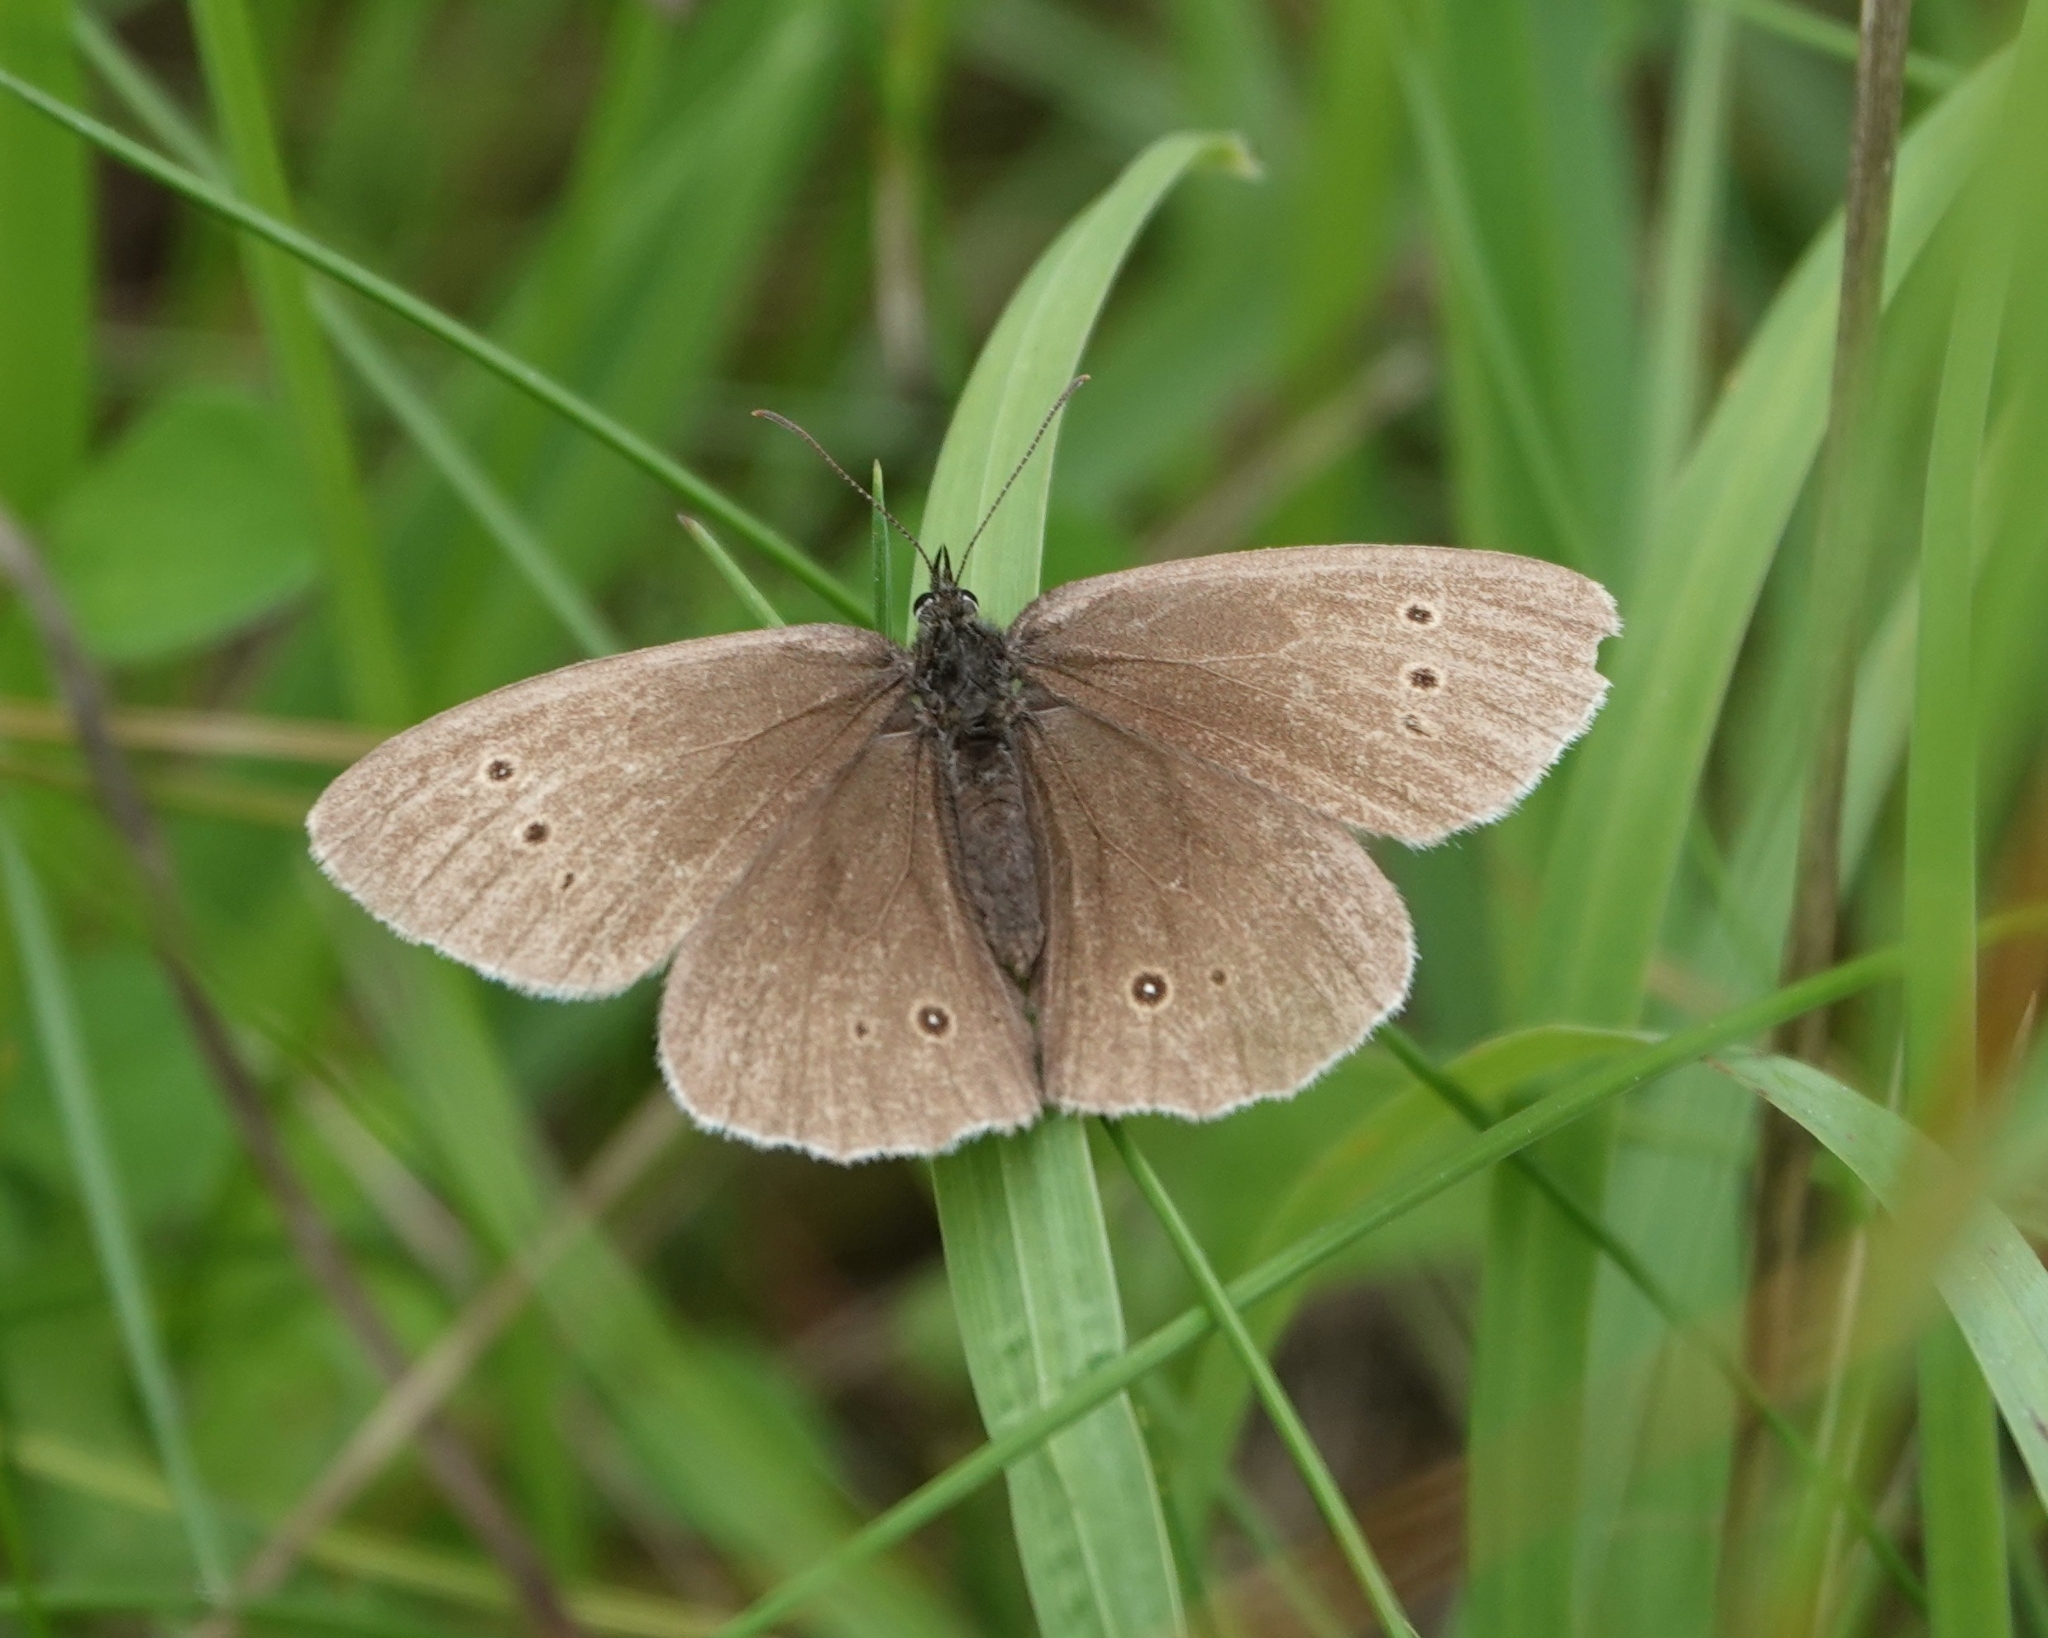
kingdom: Animalia
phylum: Arthropoda
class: Insecta
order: Lepidoptera
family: Nymphalidae
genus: Aphantopus
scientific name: Aphantopus hyperantus
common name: Ringlet
